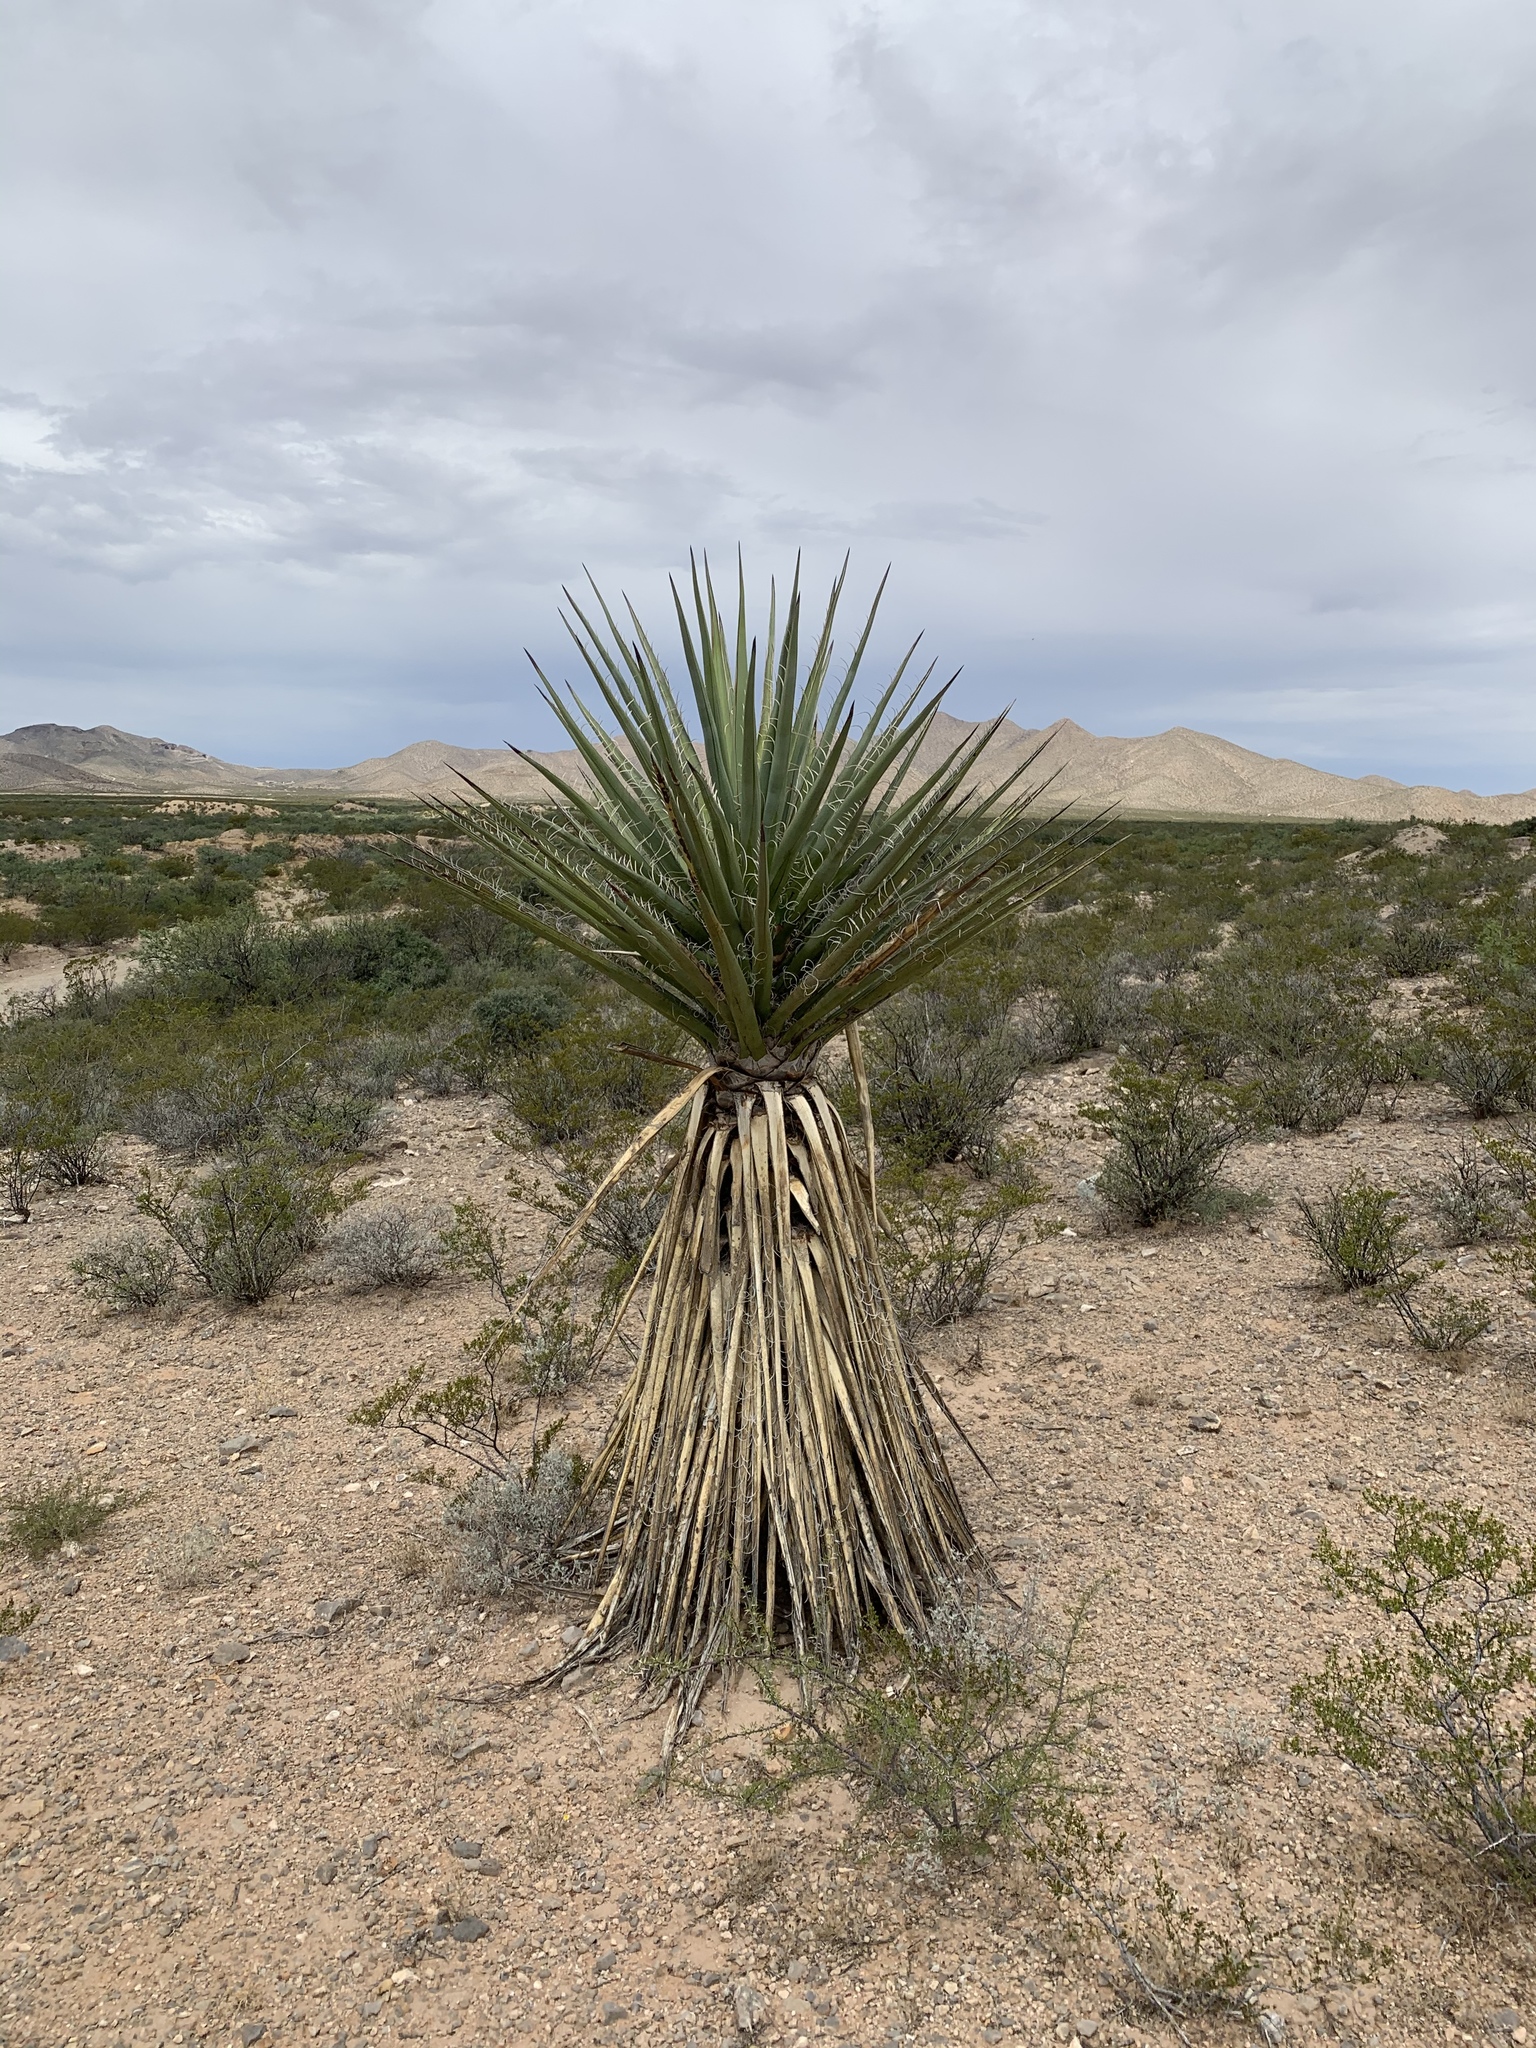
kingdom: Plantae
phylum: Tracheophyta
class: Liliopsida
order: Asparagales
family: Asparagaceae
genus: Yucca
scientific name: Yucca treculiana
